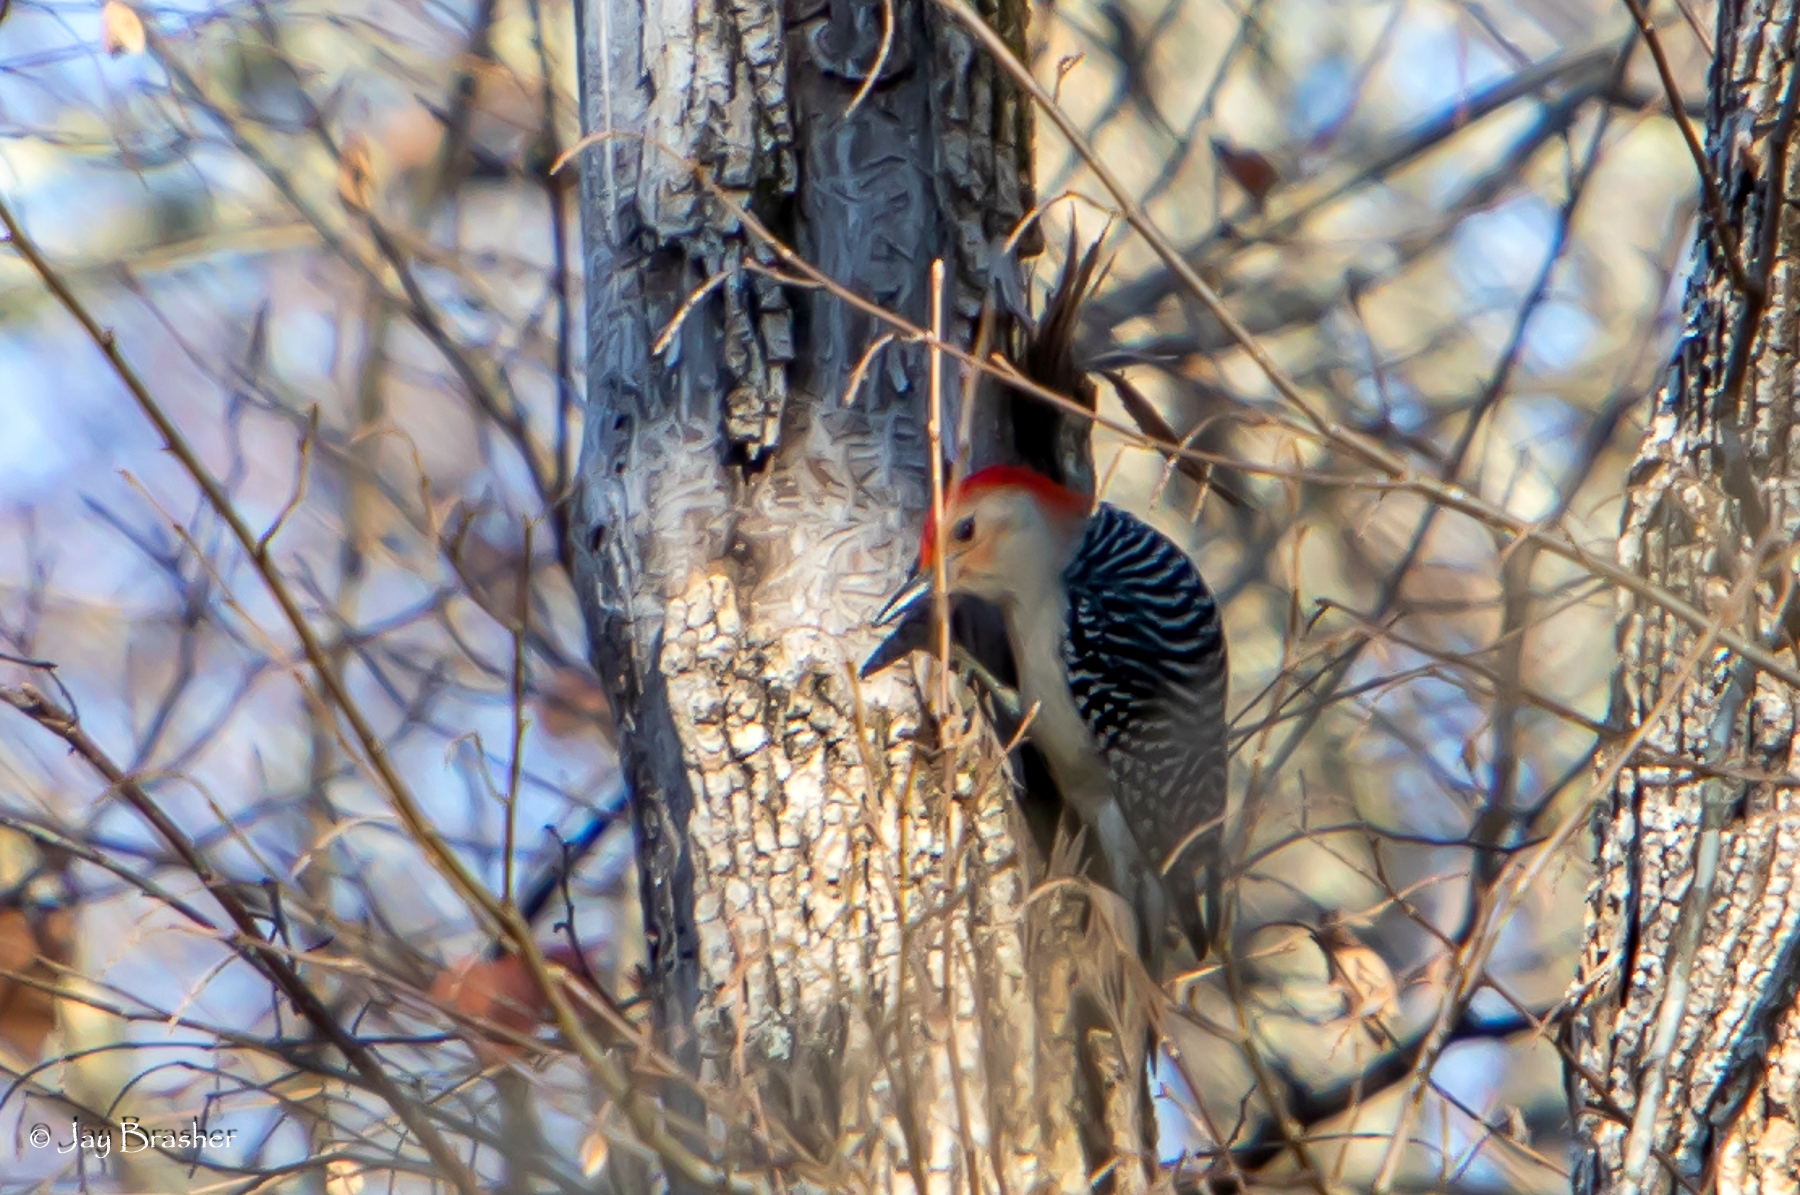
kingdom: Animalia
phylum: Chordata
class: Aves
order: Piciformes
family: Picidae
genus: Melanerpes
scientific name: Melanerpes carolinus
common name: Red-bellied woodpecker
